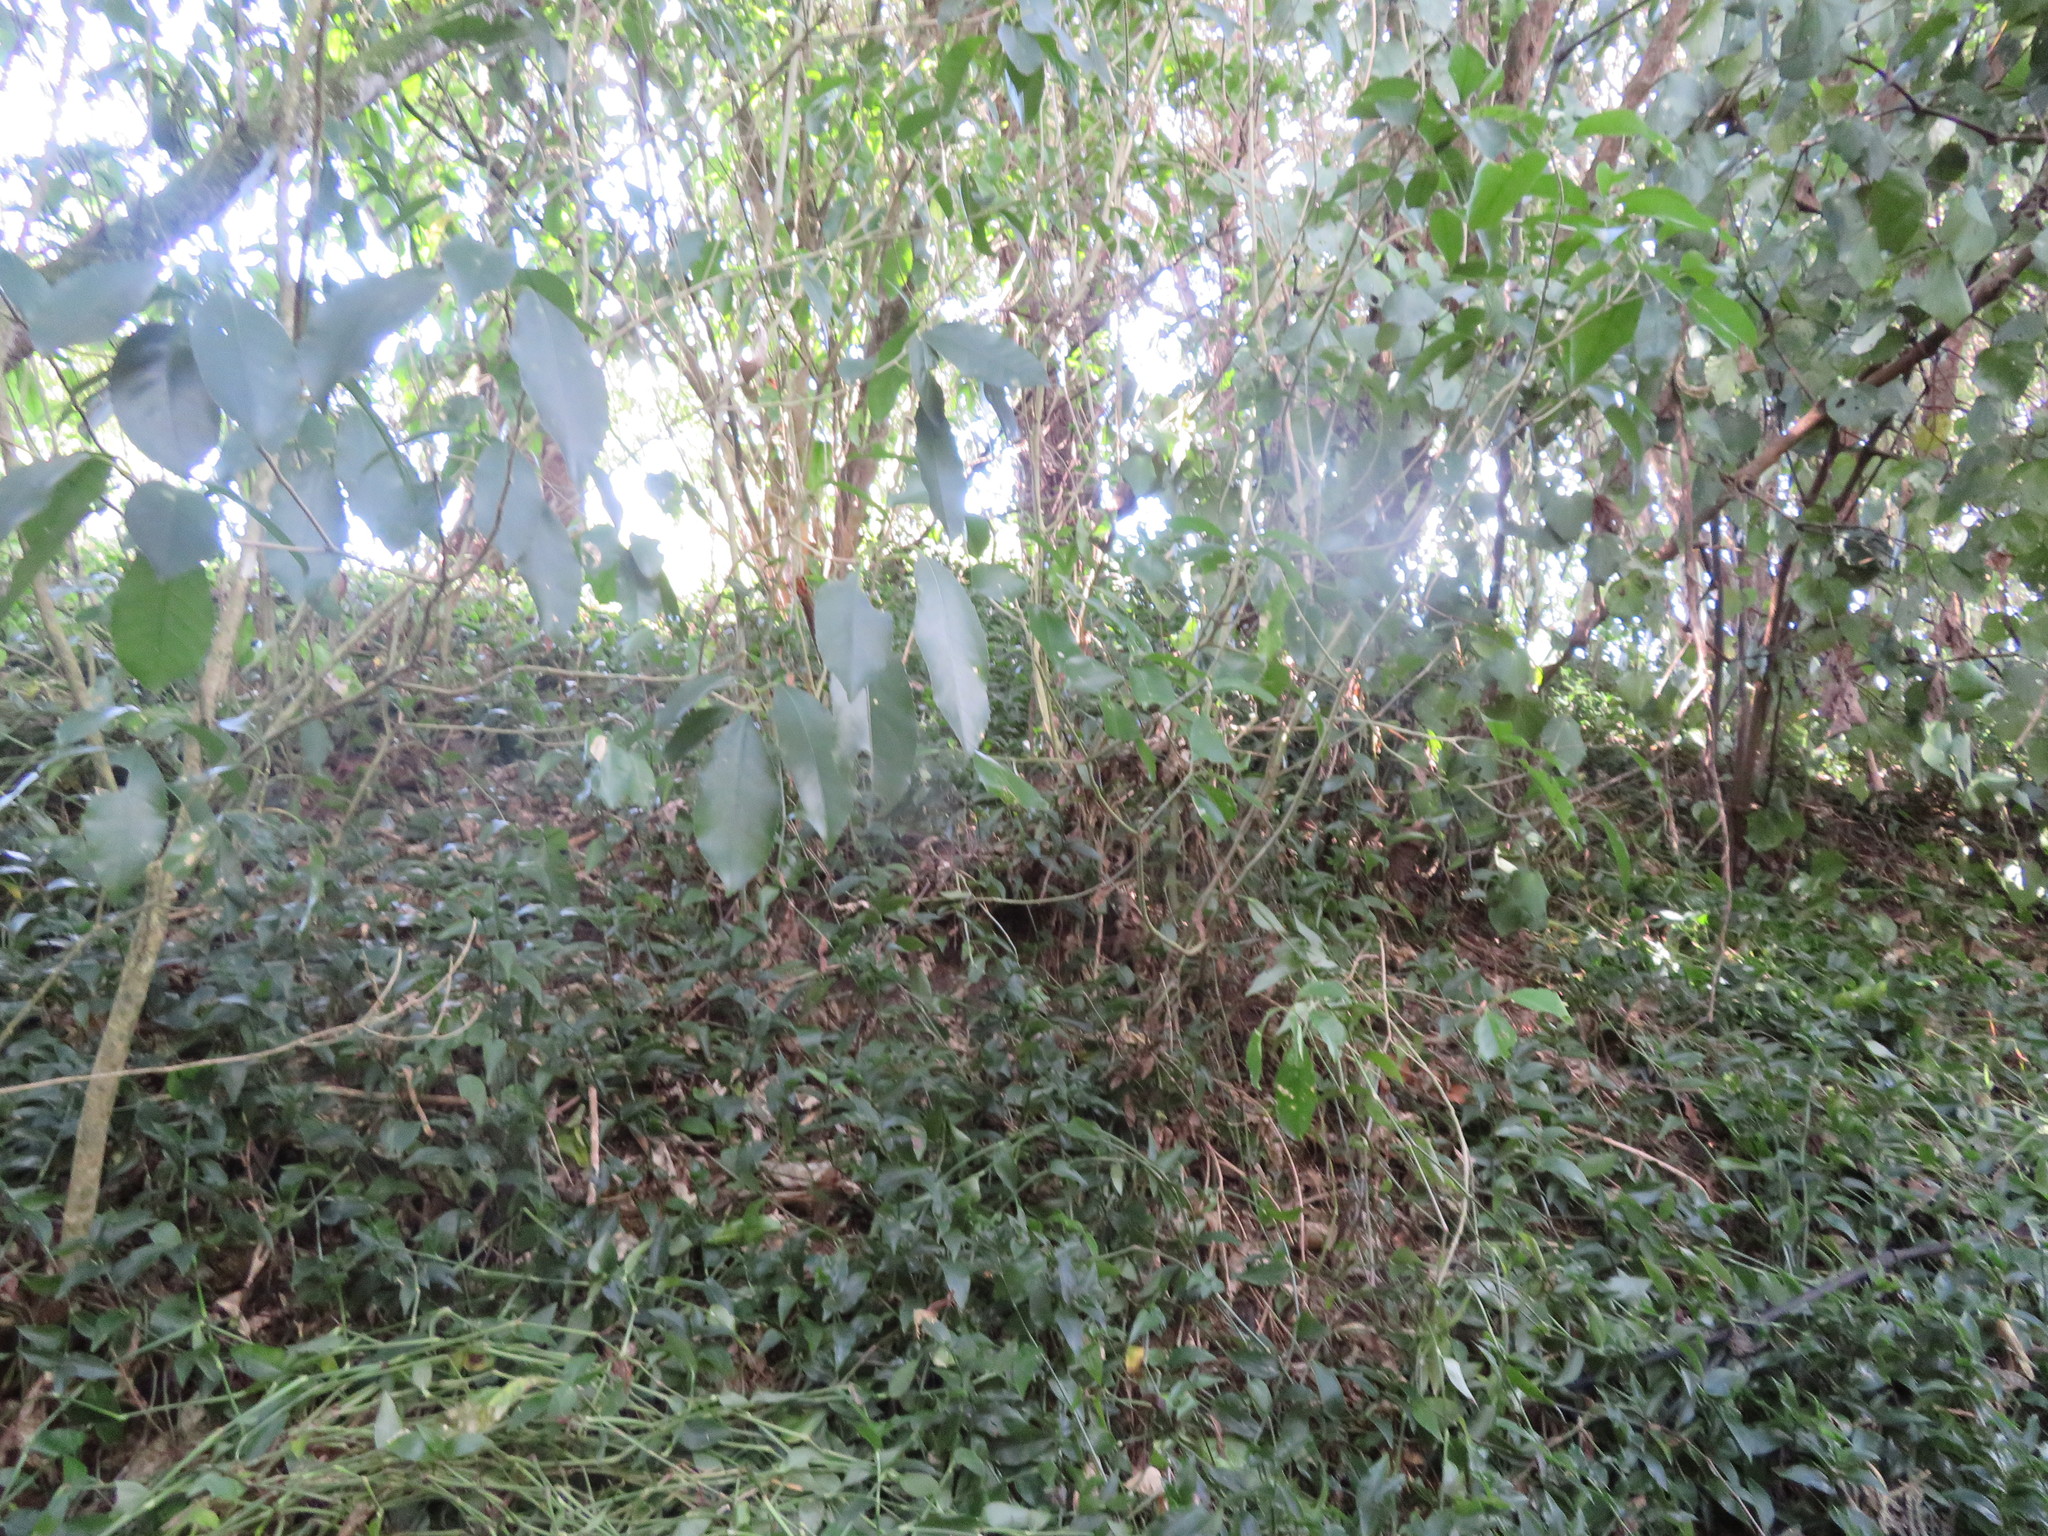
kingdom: Plantae
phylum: Tracheophyta
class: Liliopsida
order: Commelinales
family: Commelinaceae
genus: Tradescantia
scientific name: Tradescantia fluminensis
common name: Wandering-jew
